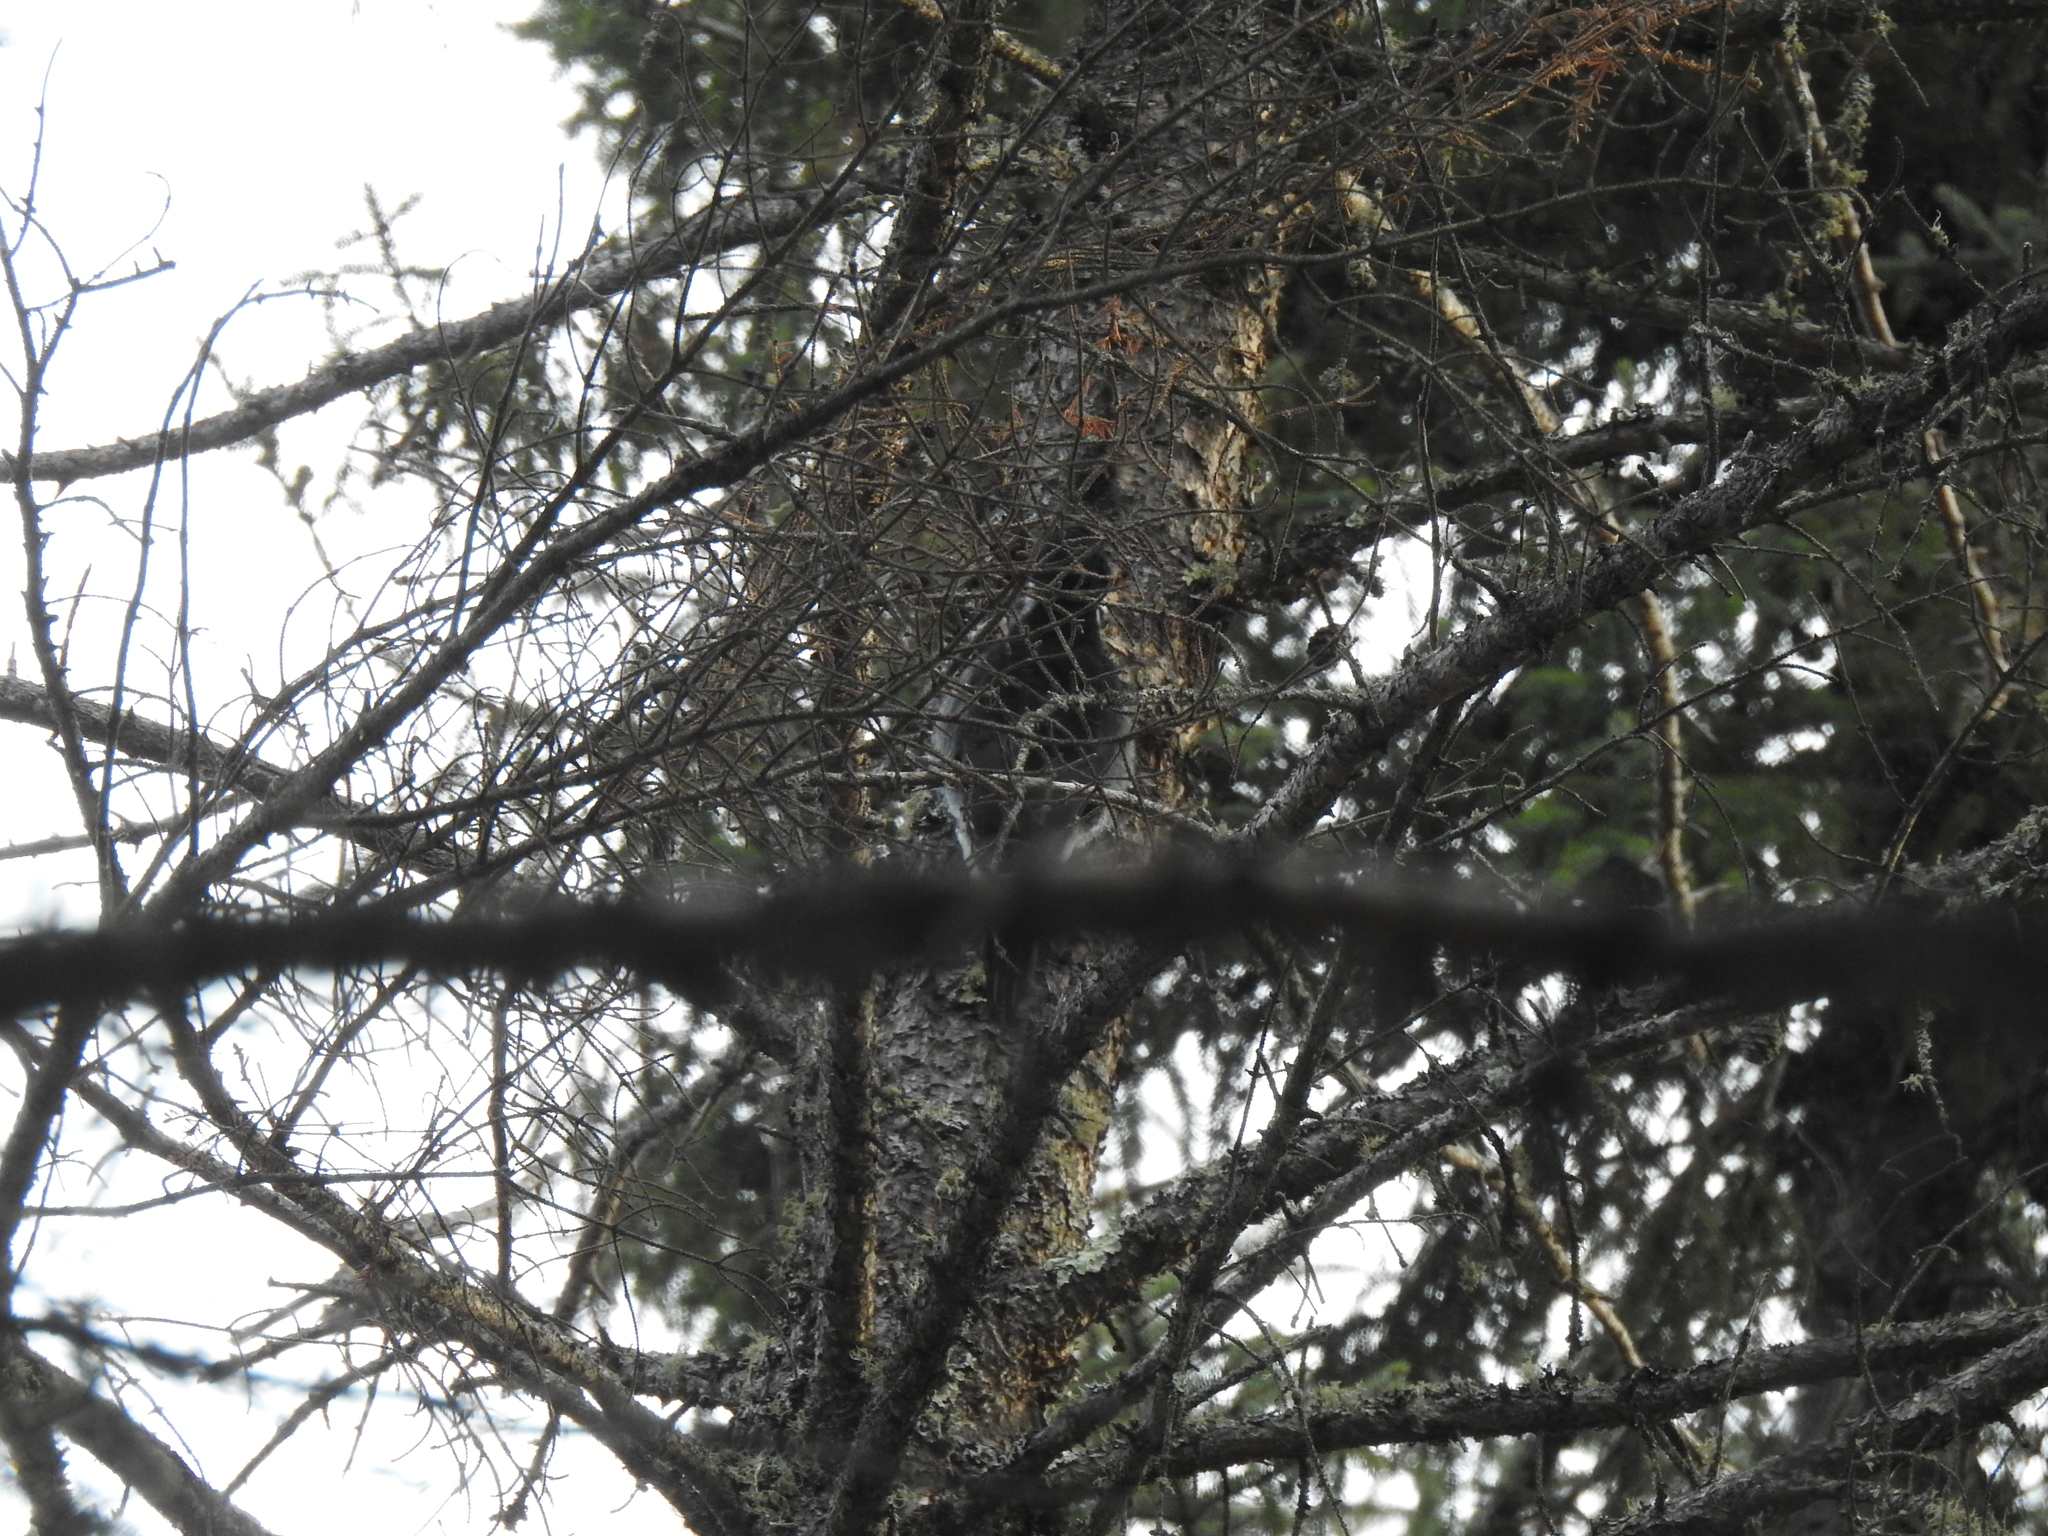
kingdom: Animalia
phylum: Chordata
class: Aves
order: Piciformes
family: Picidae
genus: Picoides
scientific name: Picoides arcticus
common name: Black-backed woodpecker
